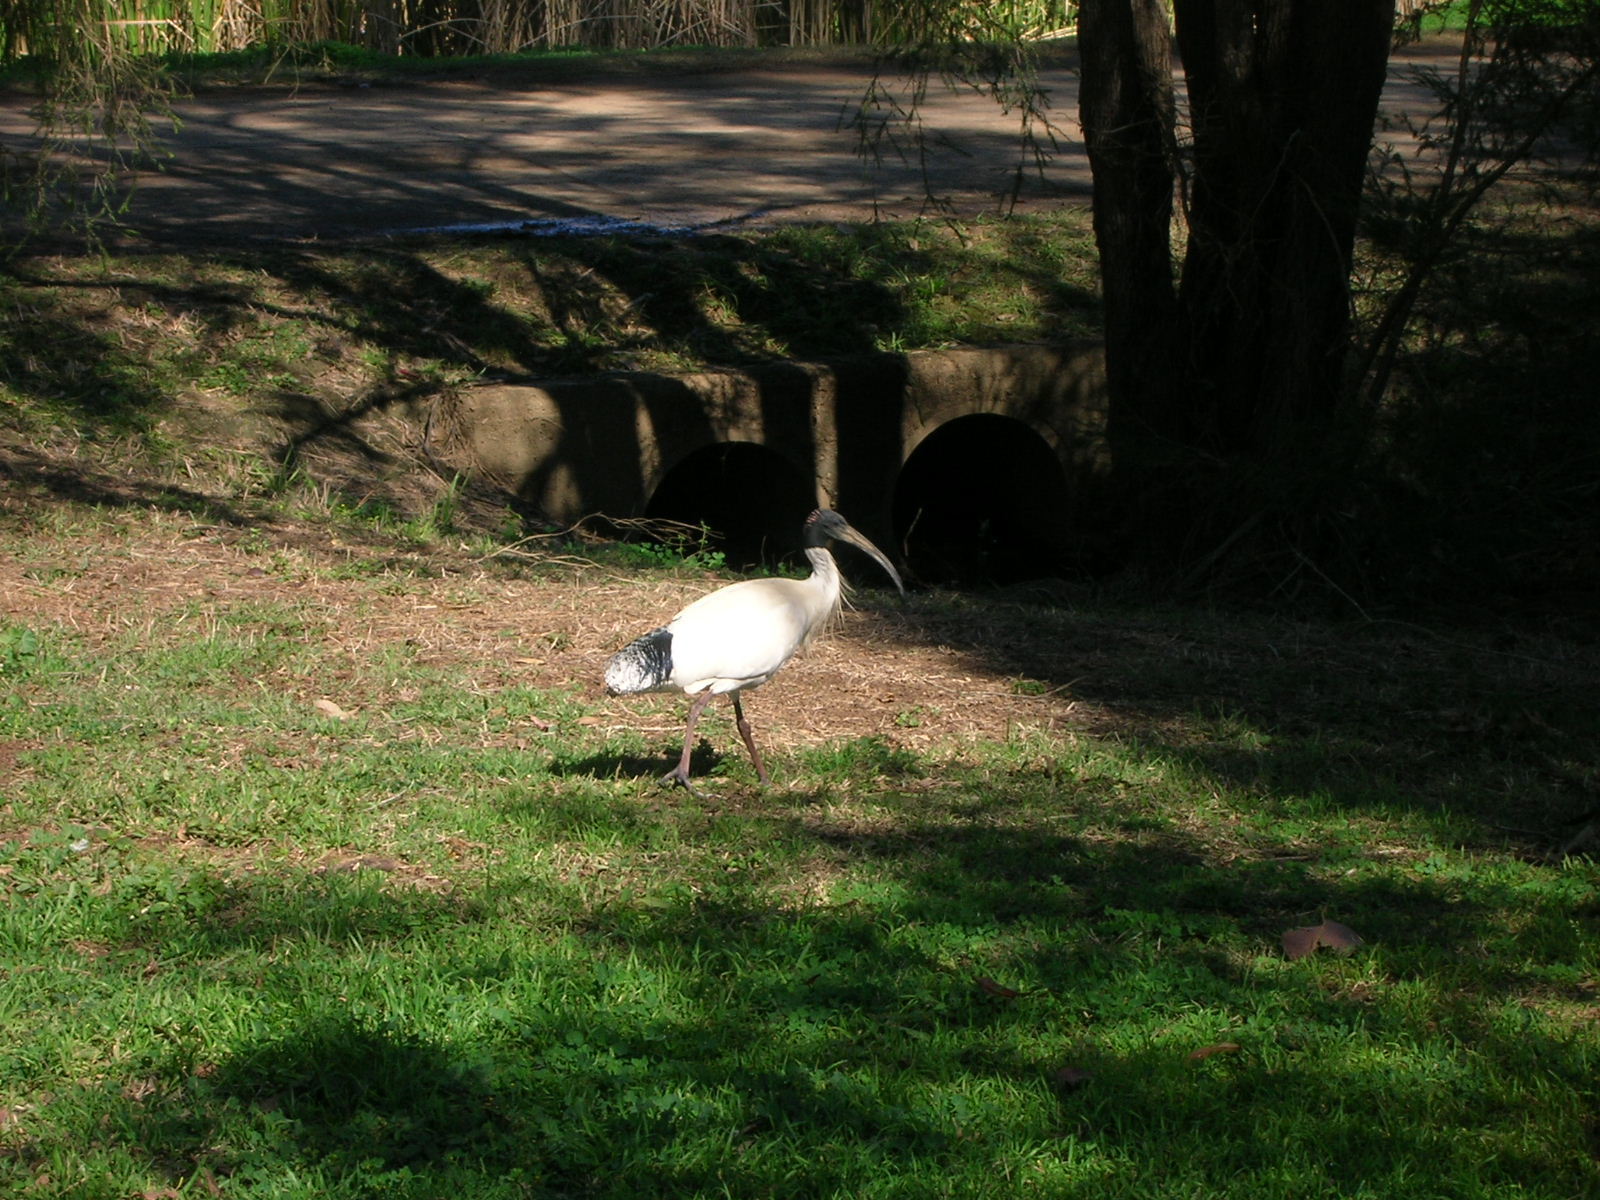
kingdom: Animalia
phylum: Chordata
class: Aves
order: Pelecaniformes
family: Threskiornithidae
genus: Threskiornis
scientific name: Threskiornis molucca
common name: Australian white ibis
